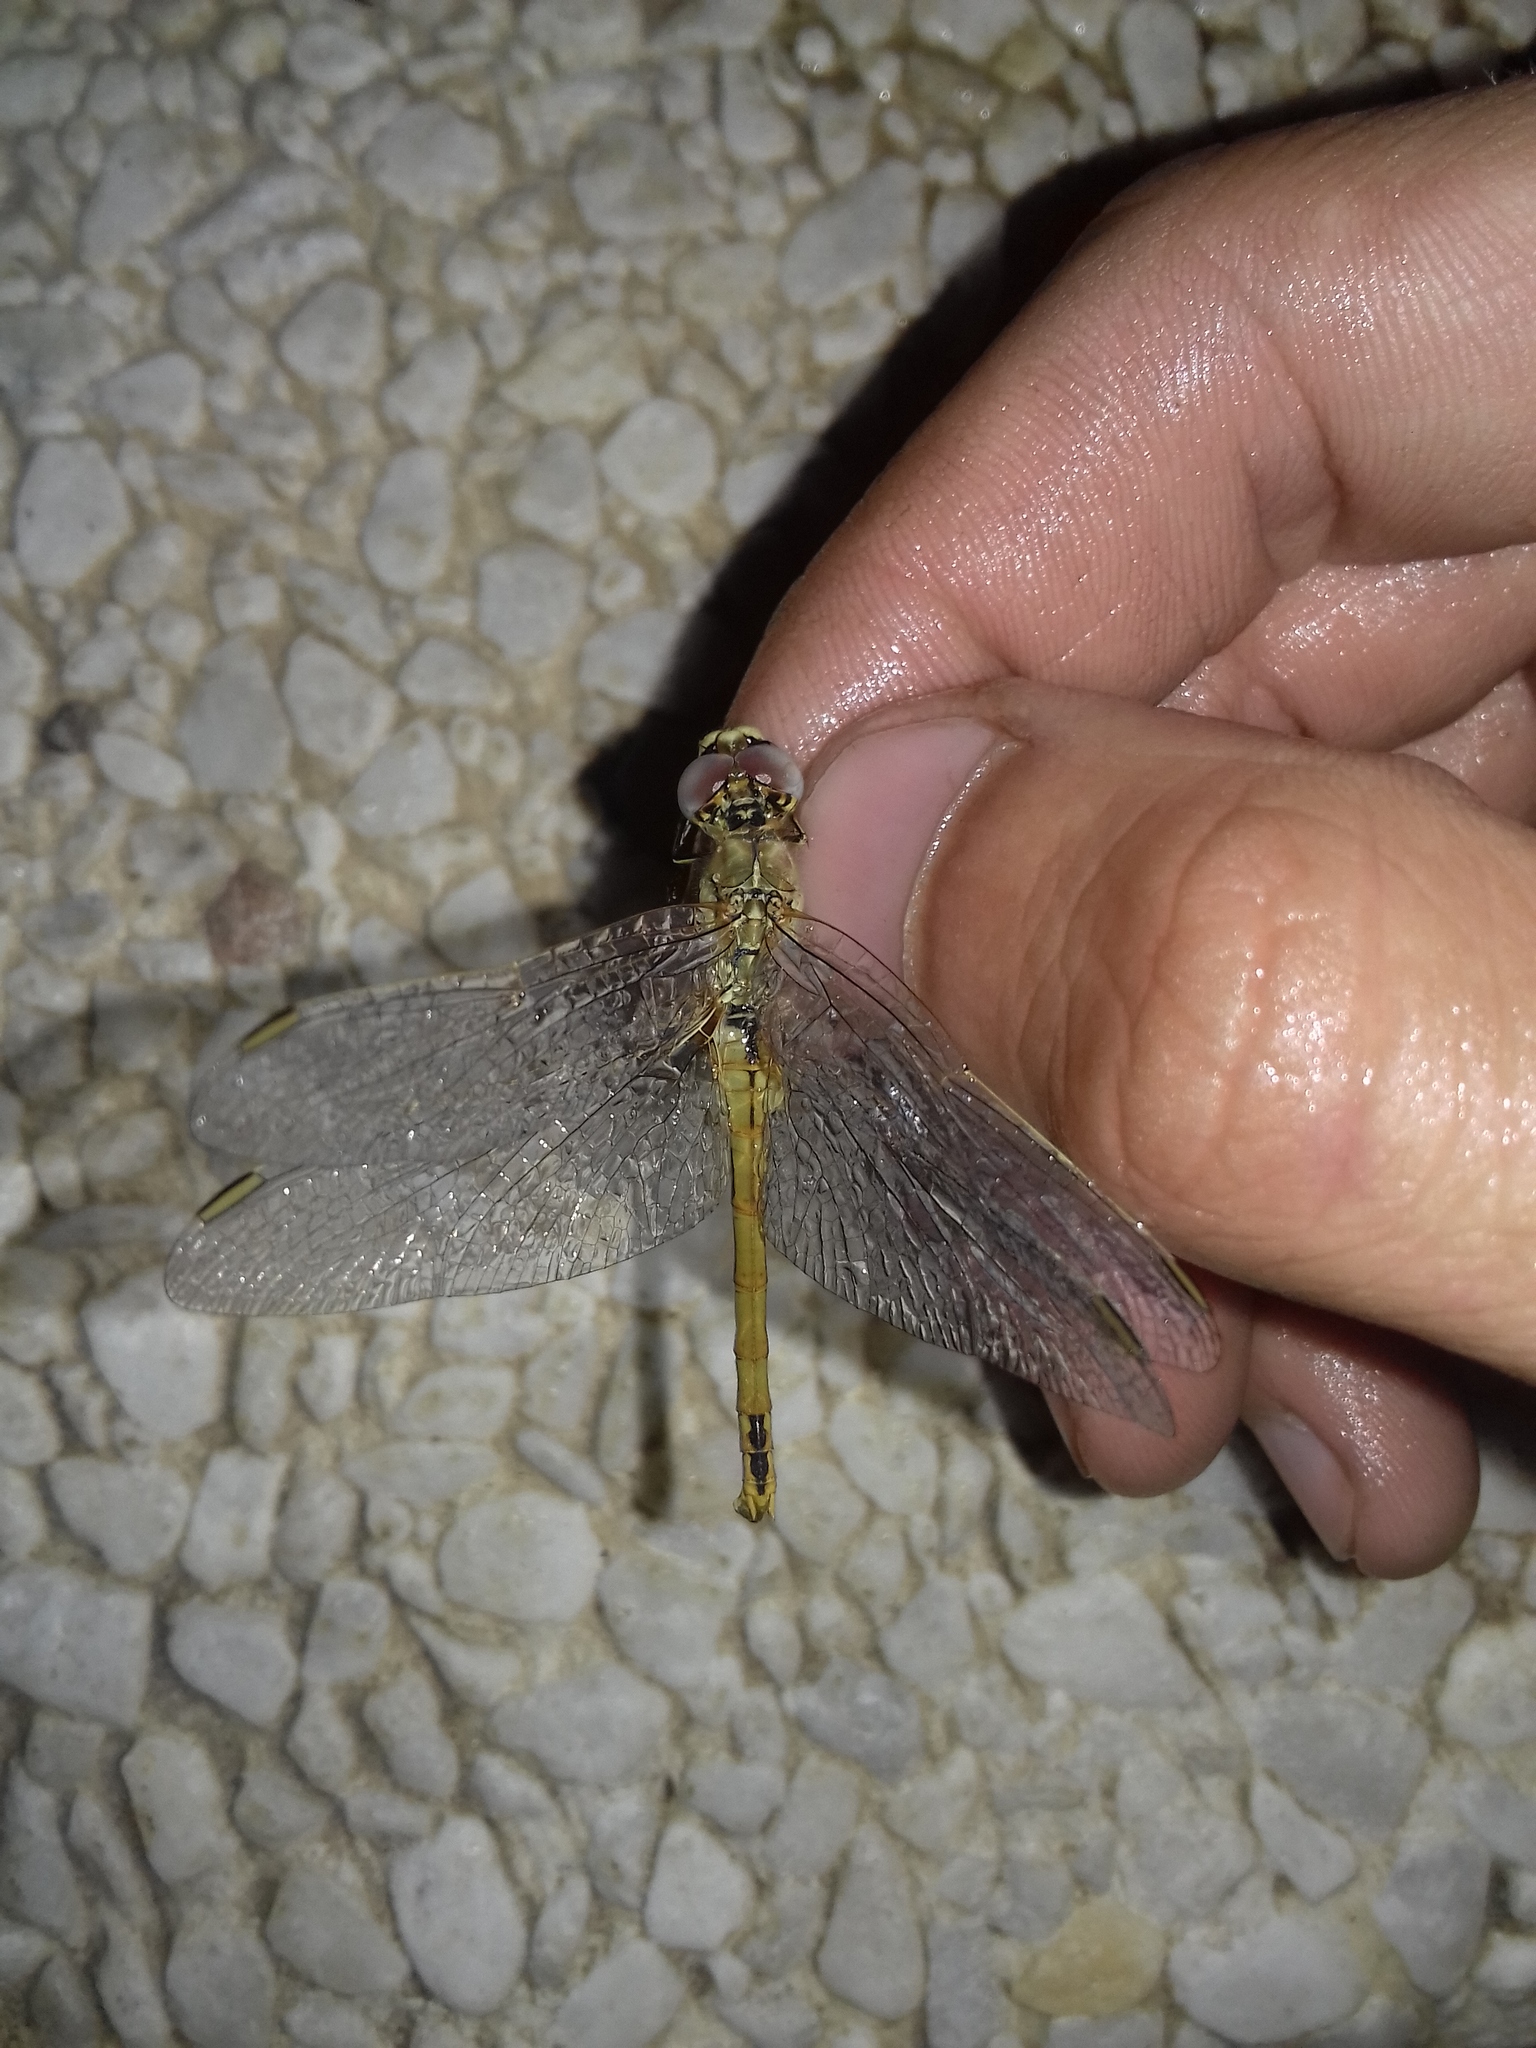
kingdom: Animalia
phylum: Arthropoda
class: Insecta
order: Odonata
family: Libellulidae
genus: Sympetrum
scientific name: Sympetrum fonscolombii
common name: Red-veined darter
